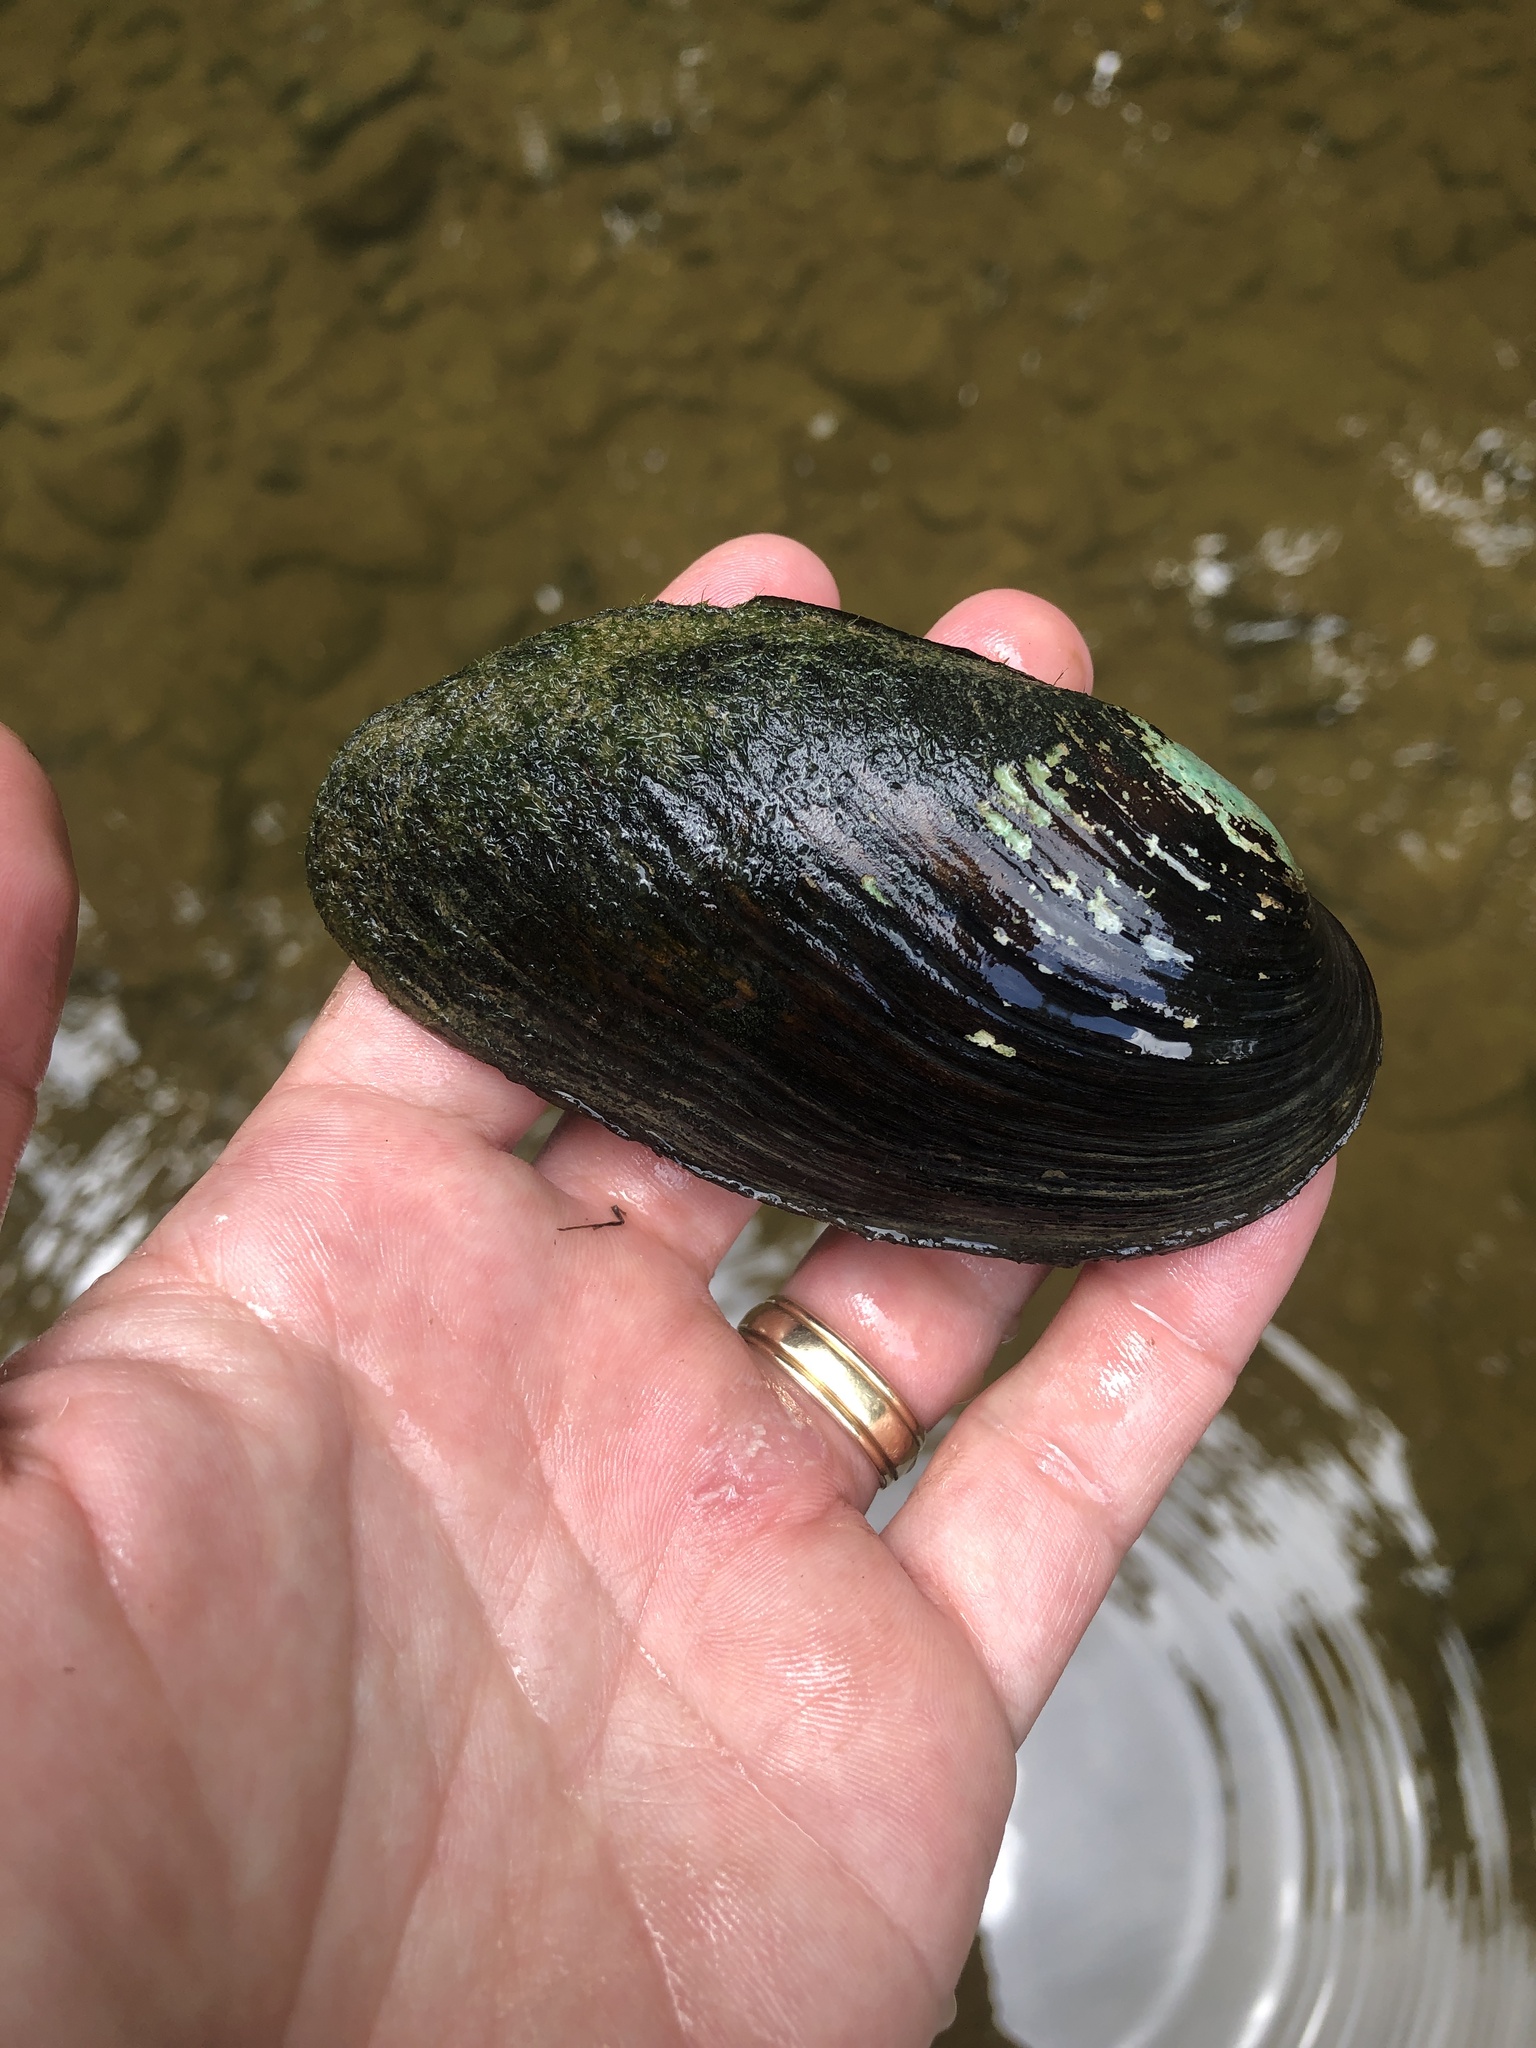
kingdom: Animalia
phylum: Mollusca
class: Bivalvia
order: Unionida
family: Unionidae
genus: Eurynia
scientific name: Eurynia dilatata
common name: Spike
